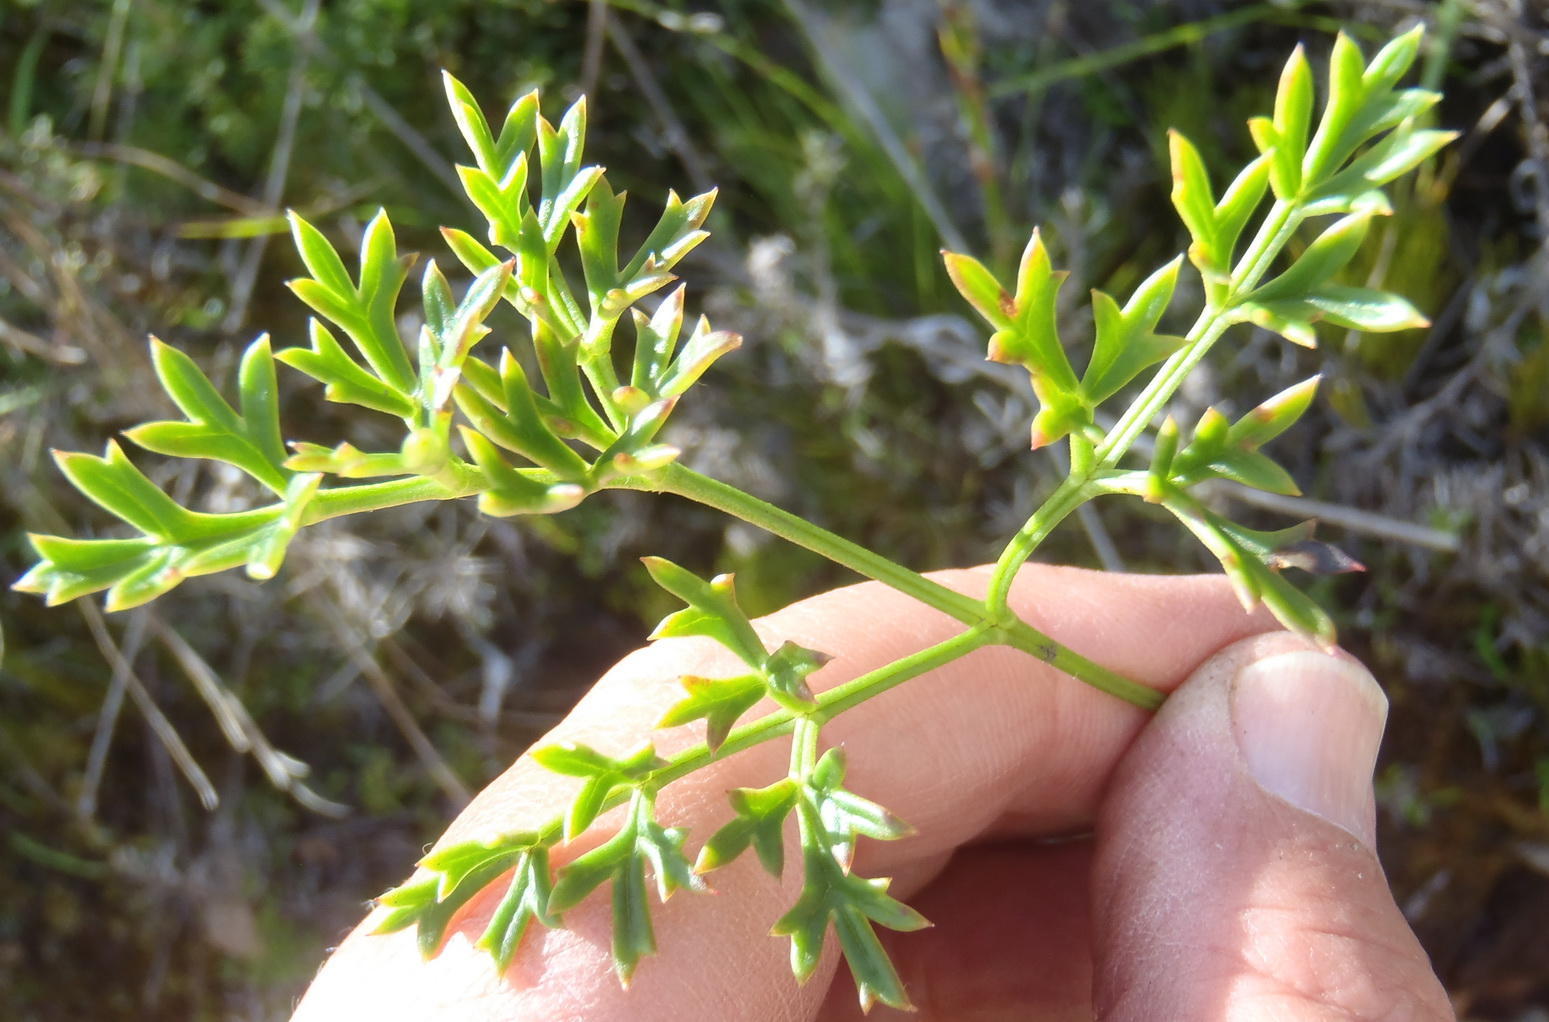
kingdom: Plantae
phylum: Tracheophyta
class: Magnoliopsida
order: Ranunculales
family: Ranunculaceae
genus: Knowltonia
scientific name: Knowltonia tenuifolia
